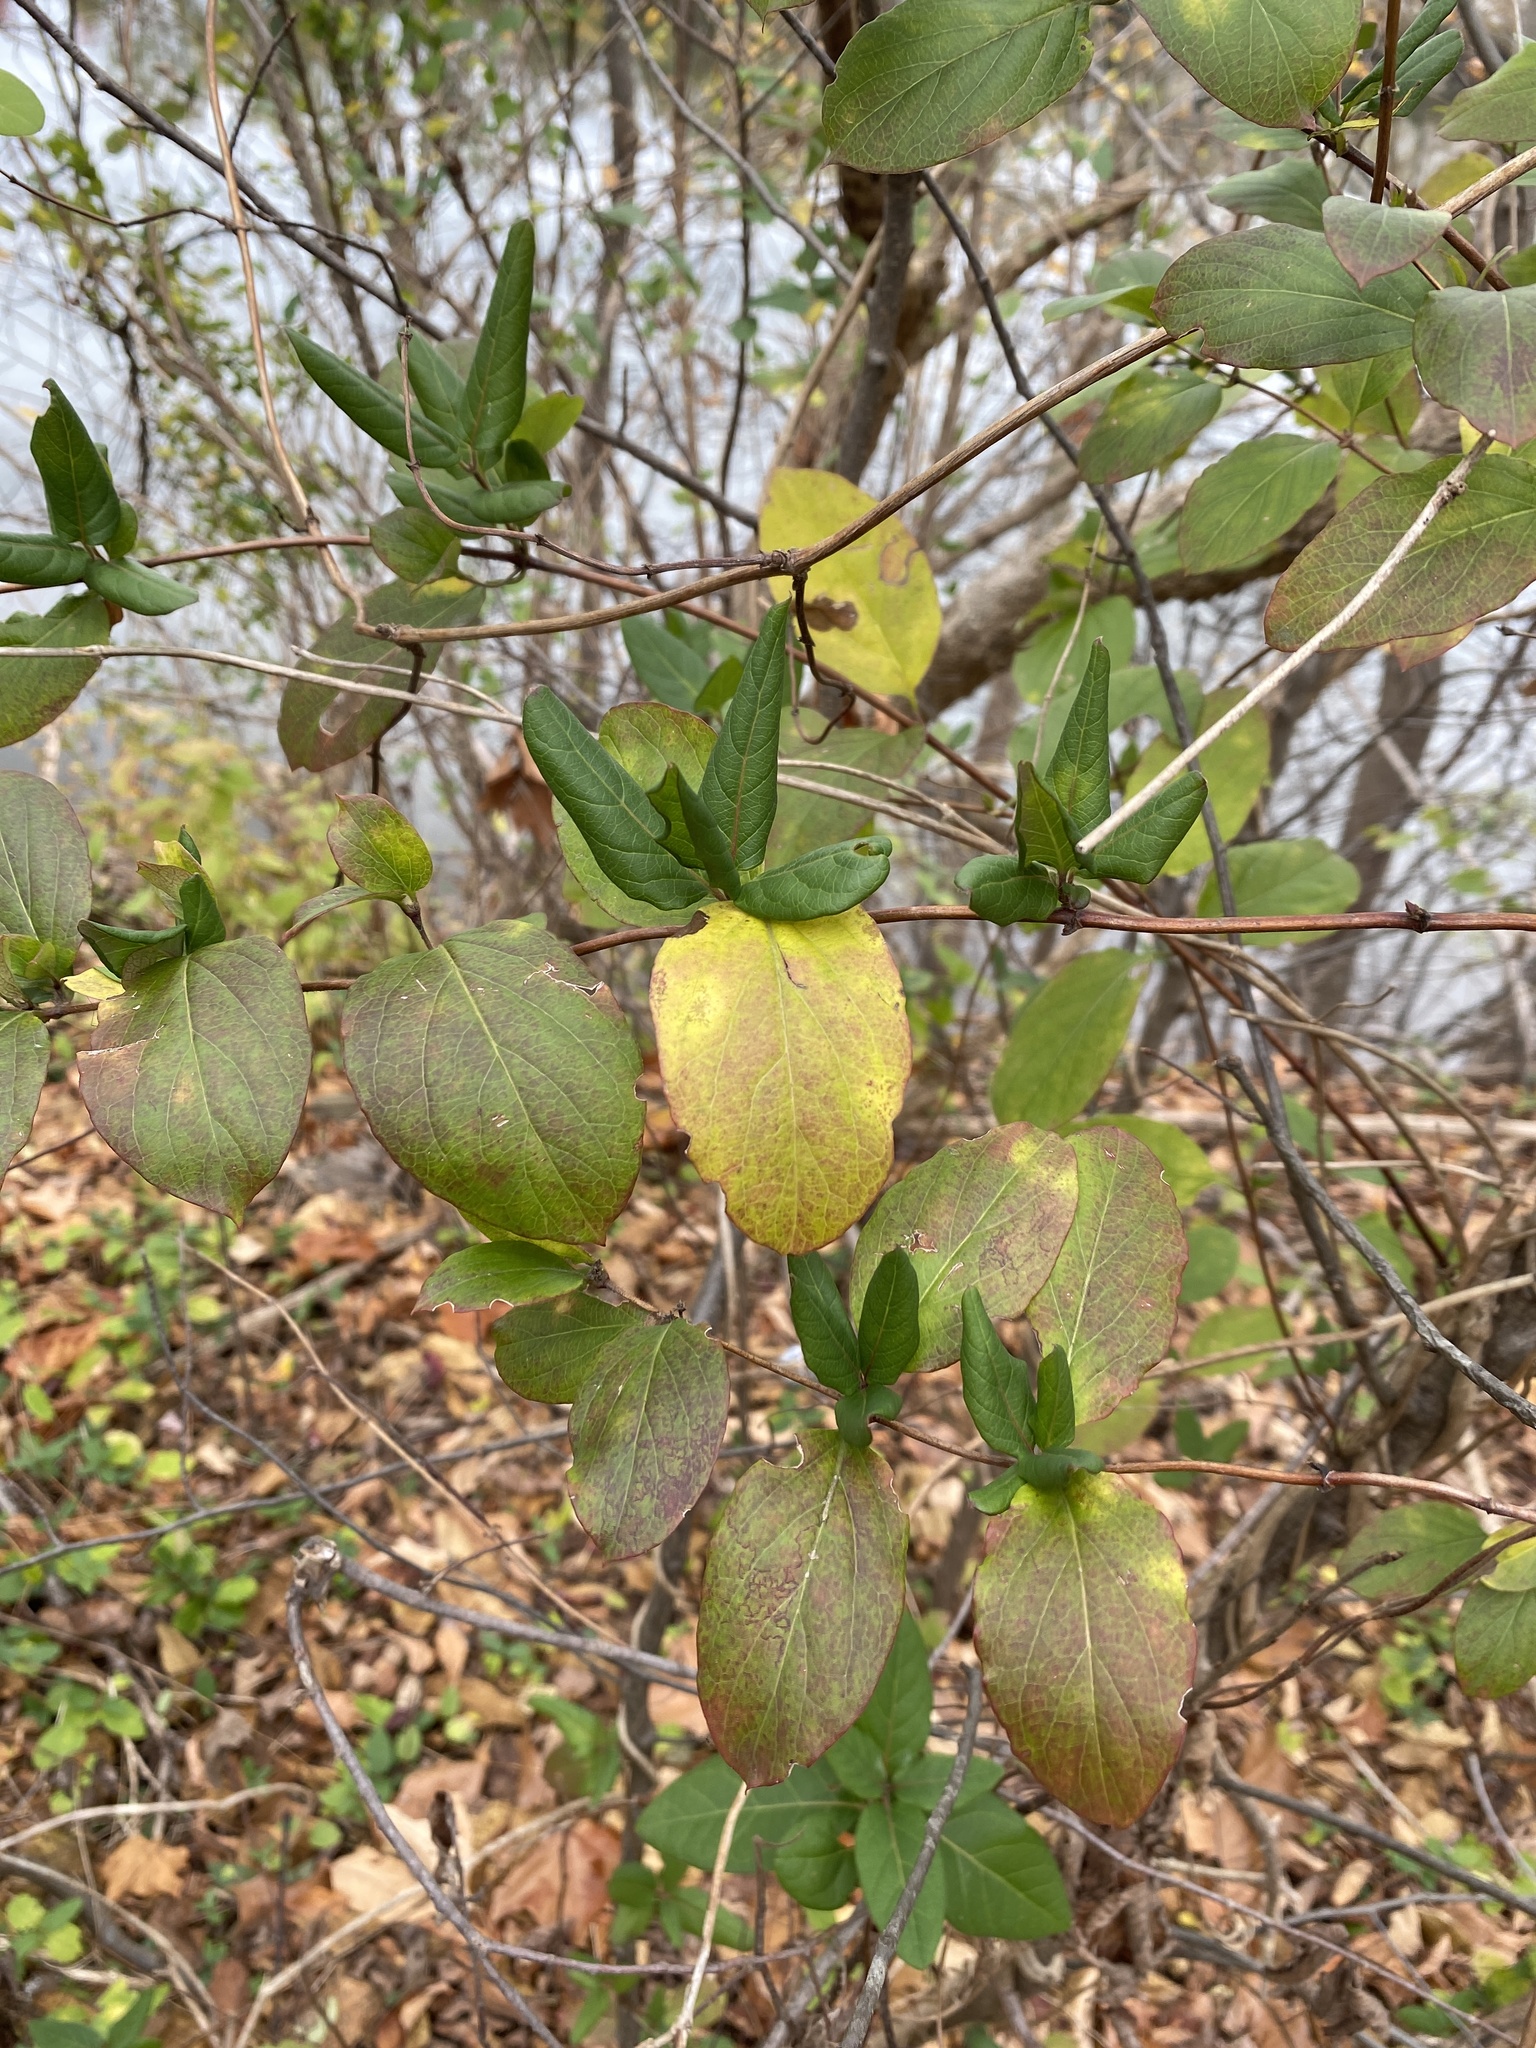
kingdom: Plantae
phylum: Tracheophyta
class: Magnoliopsida
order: Dipsacales
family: Caprifoliaceae
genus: Lonicera
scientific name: Lonicera japonica
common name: Japanese honeysuckle
